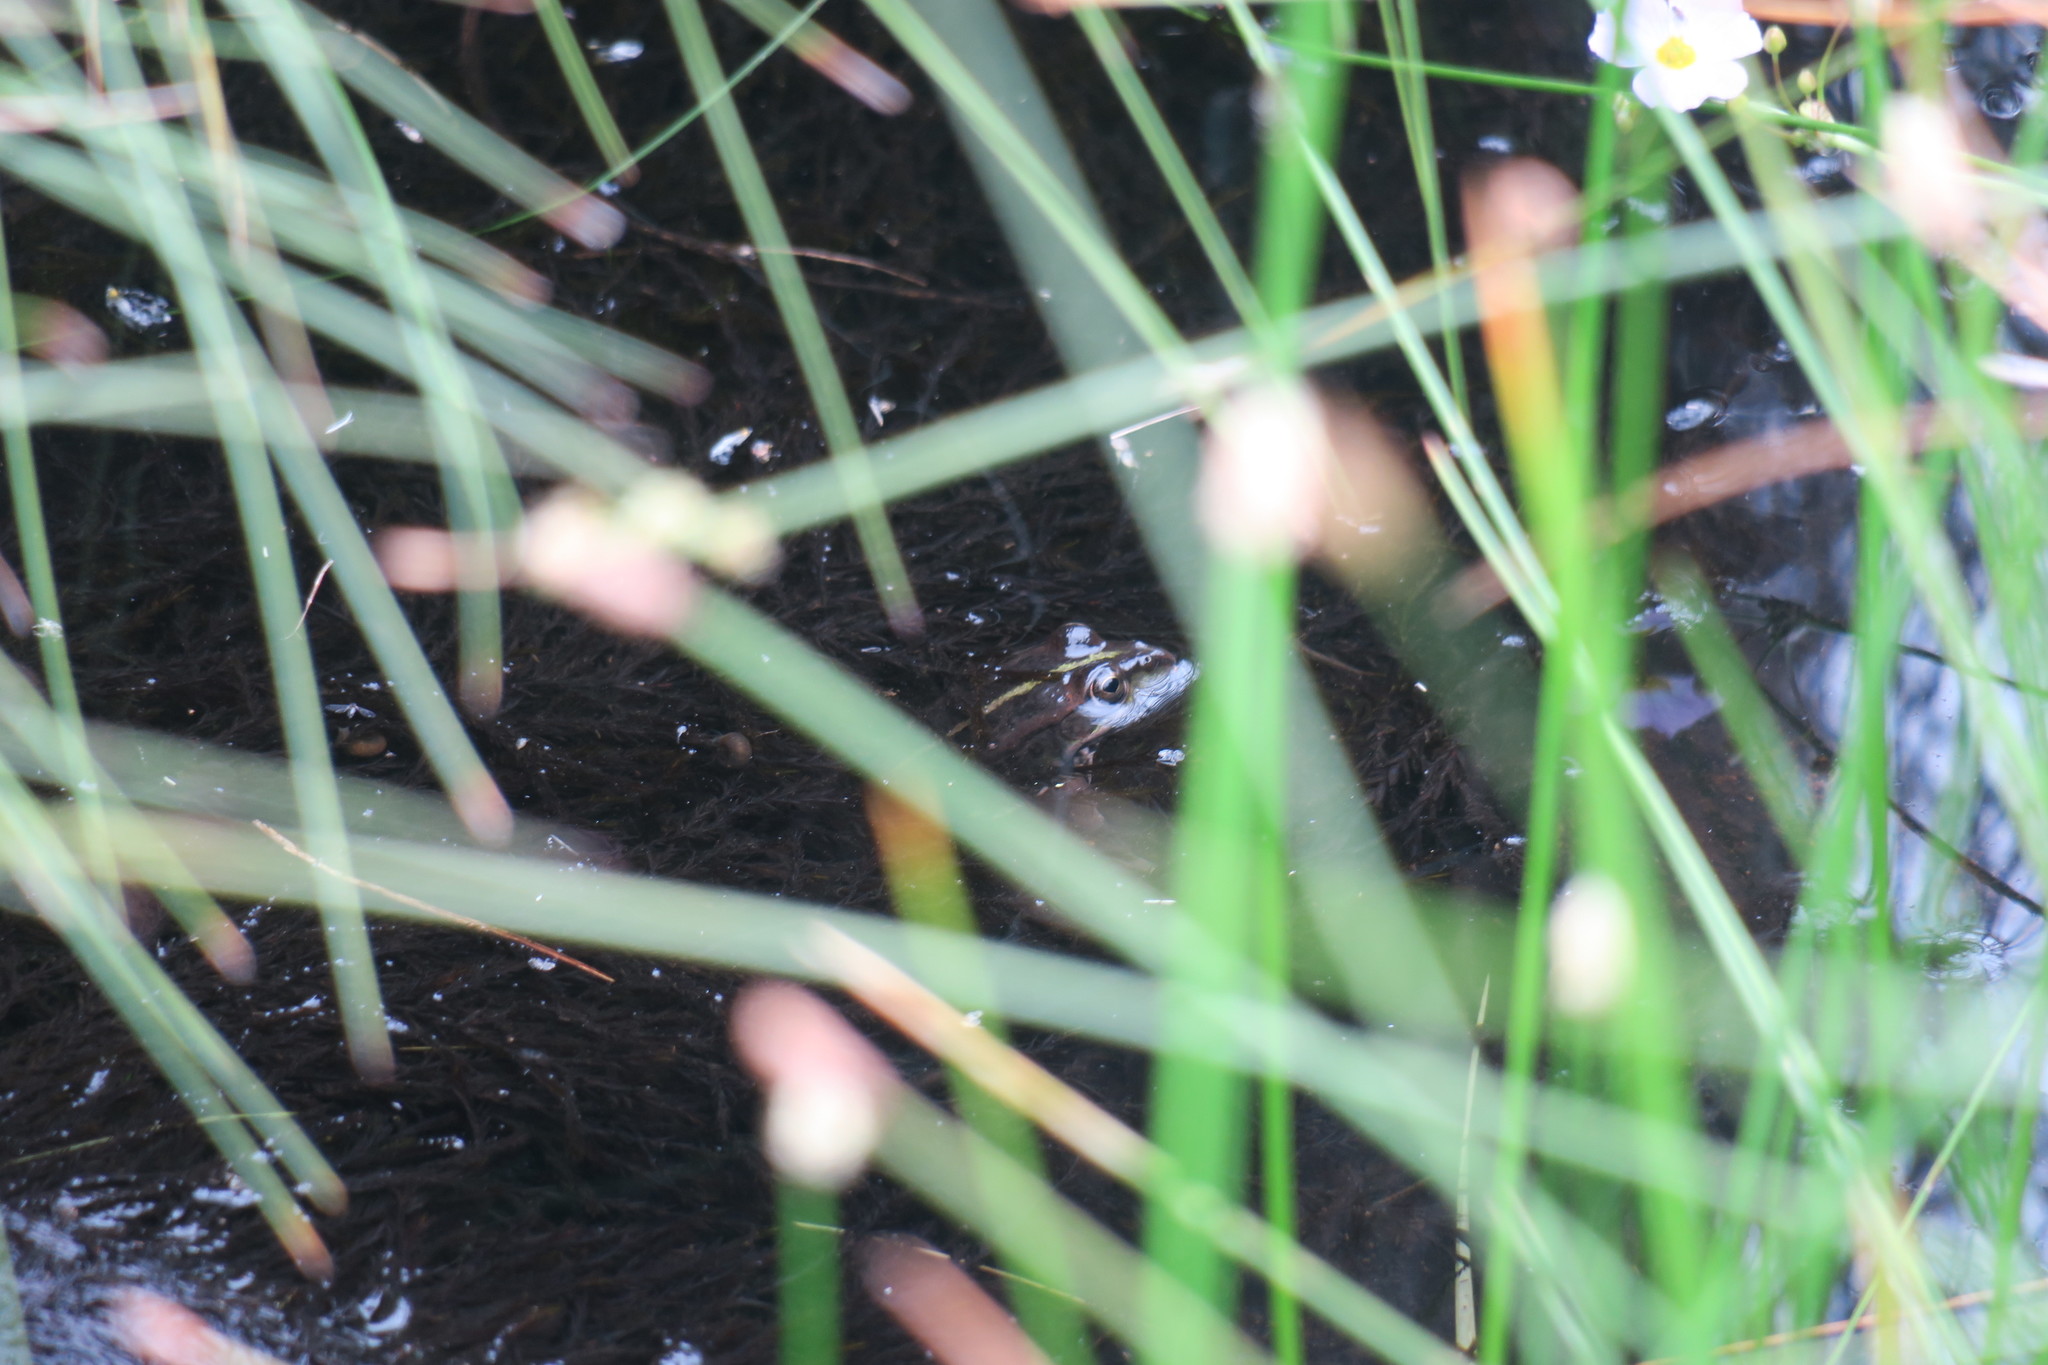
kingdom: Animalia
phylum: Chordata
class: Amphibia
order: Anura
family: Ranidae
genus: Pelophylax
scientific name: Pelophylax perezi
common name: Perez's frog
